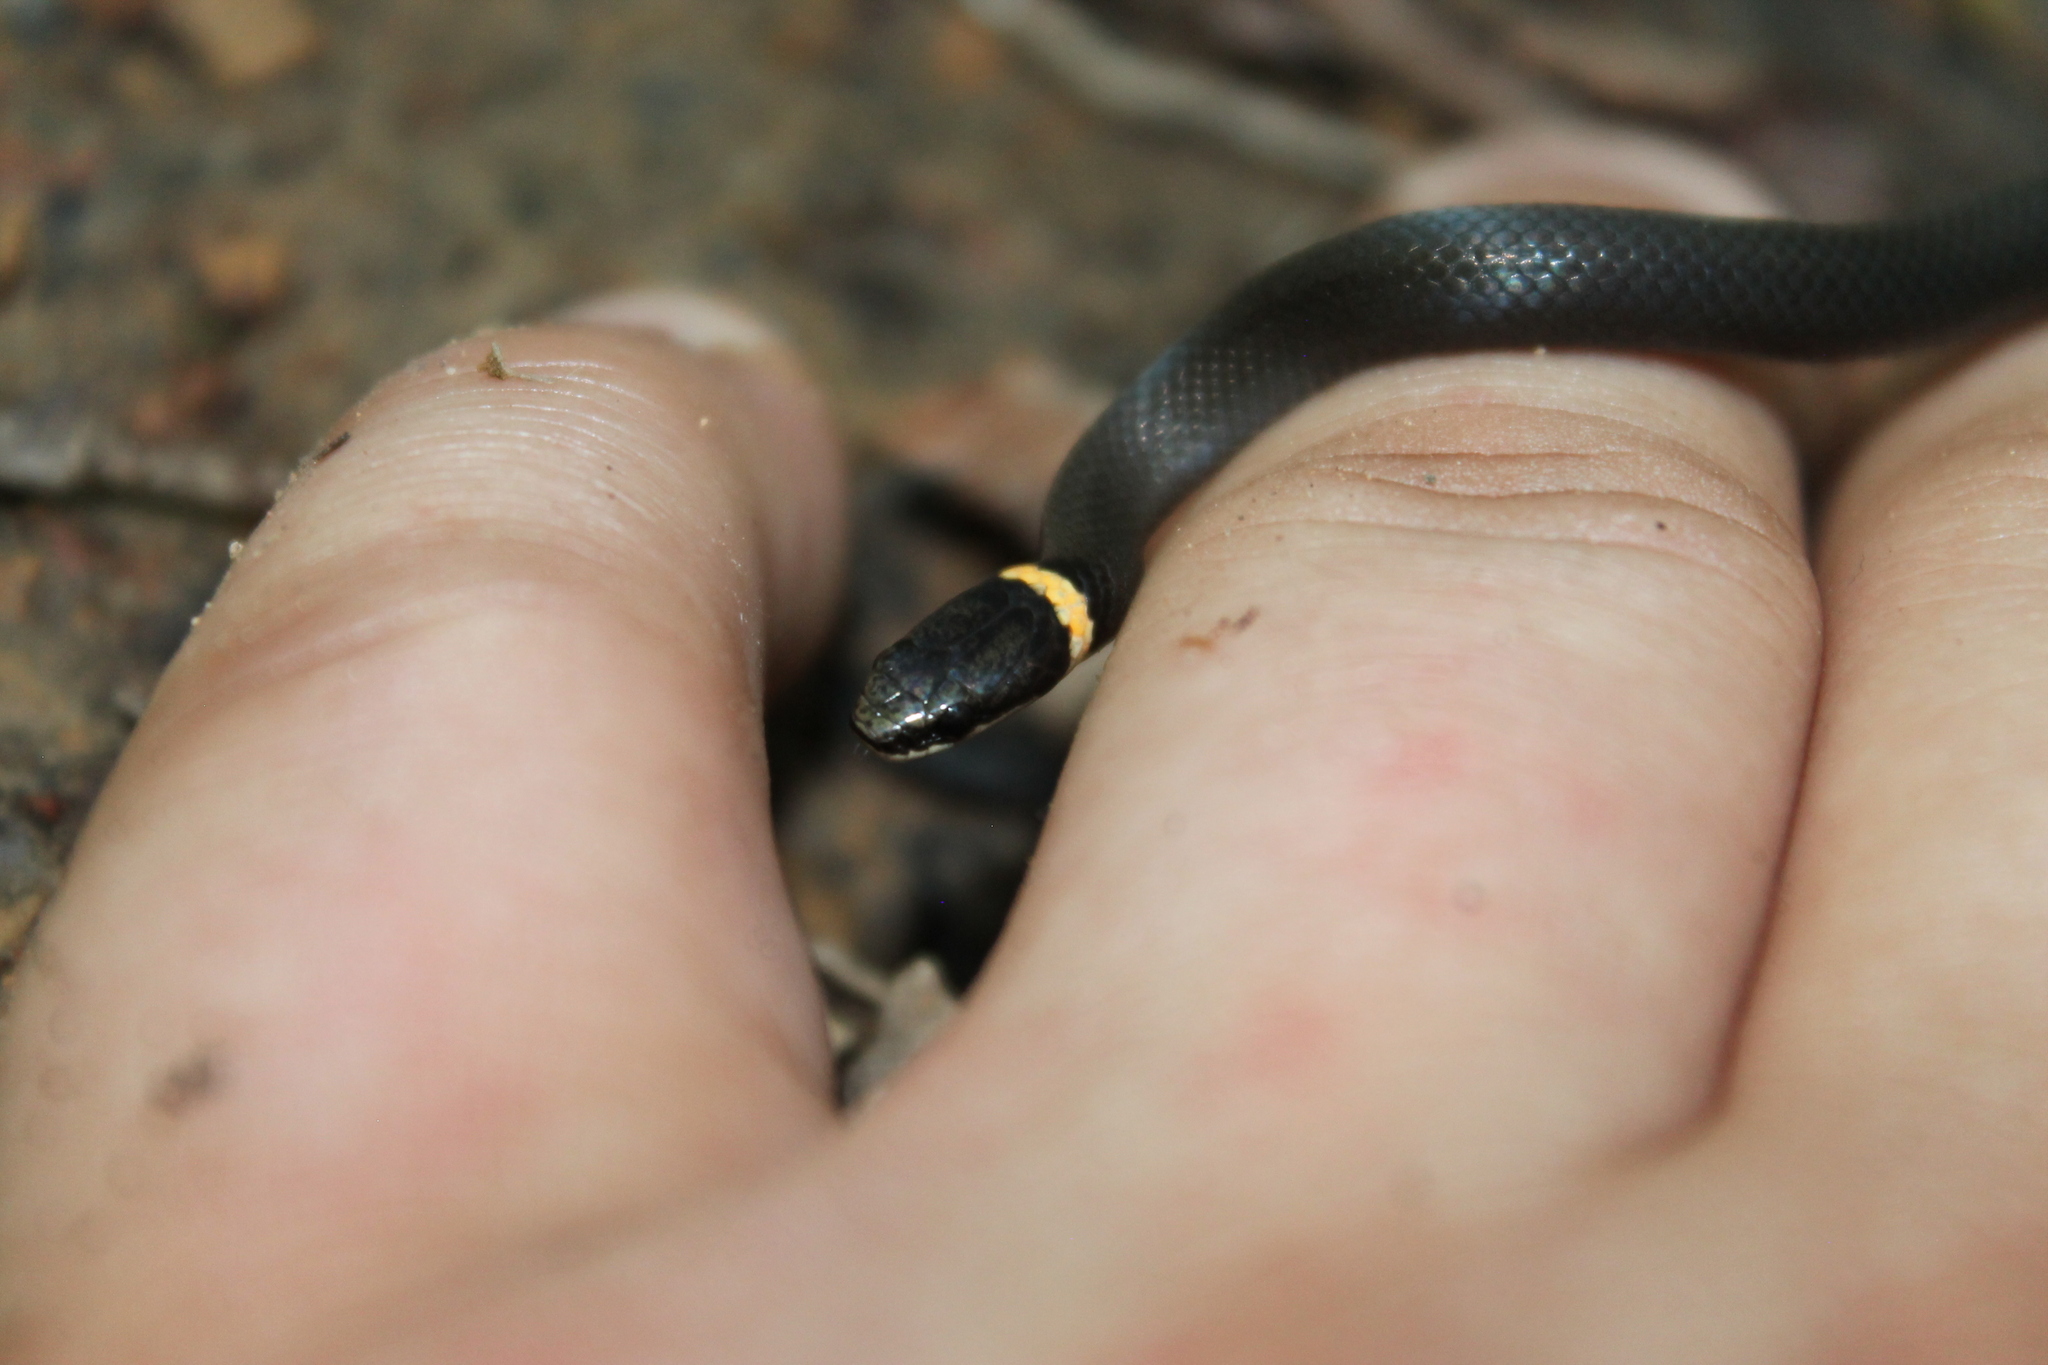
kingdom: Animalia
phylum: Chordata
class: Squamata
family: Colubridae
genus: Diadophis
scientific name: Diadophis punctatus
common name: Ringneck snake
